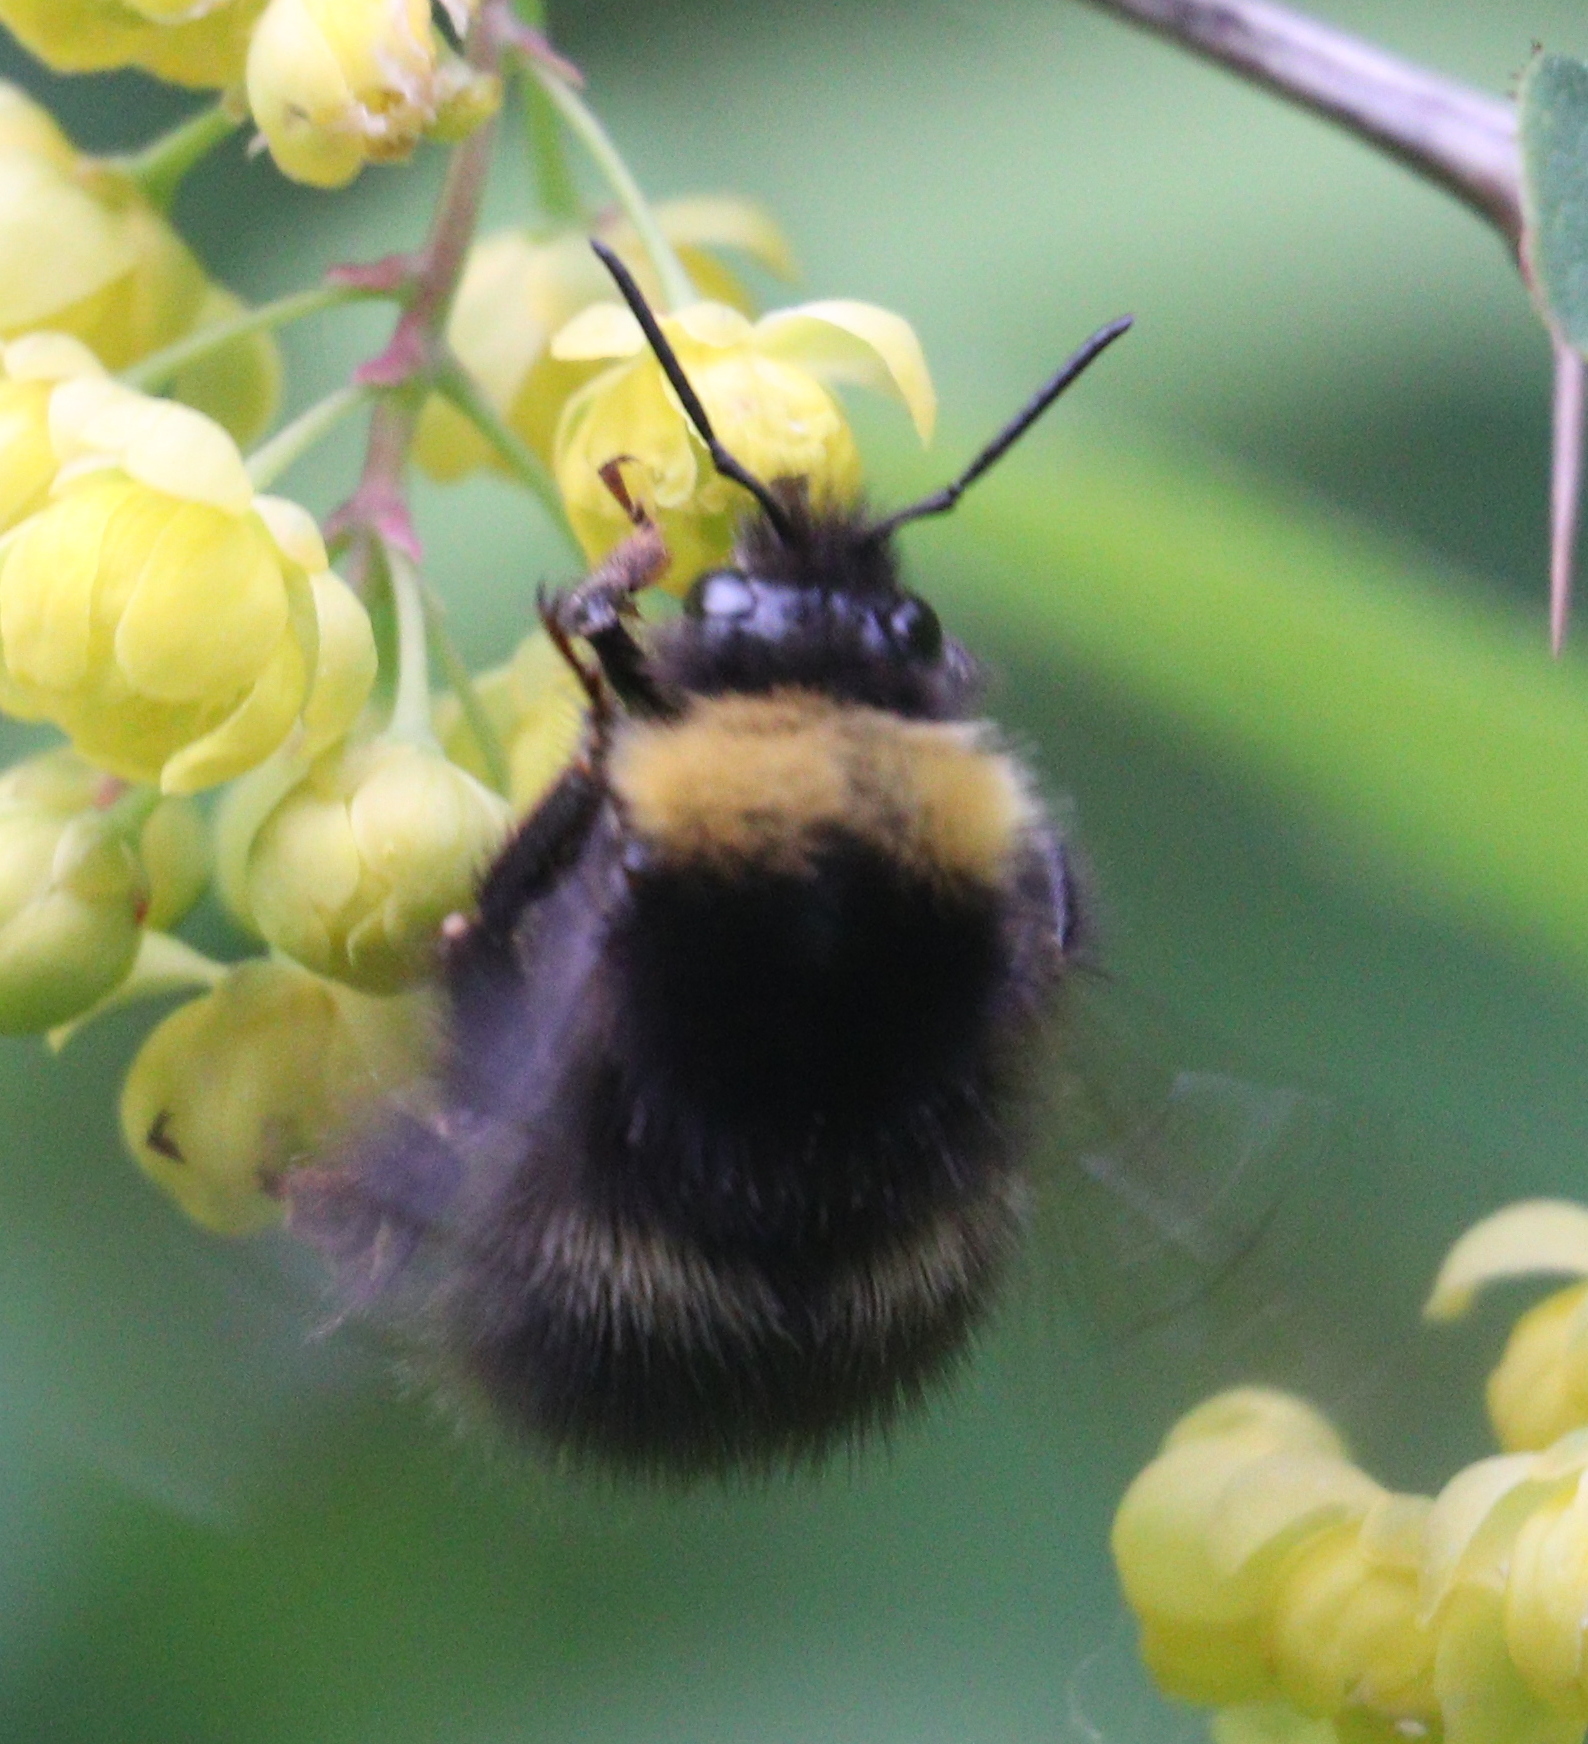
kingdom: Animalia
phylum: Arthropoda
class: Insecta
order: Hymenoptera
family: Apidae
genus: Bombus
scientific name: Bombus pratorum
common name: Early humble-bee
